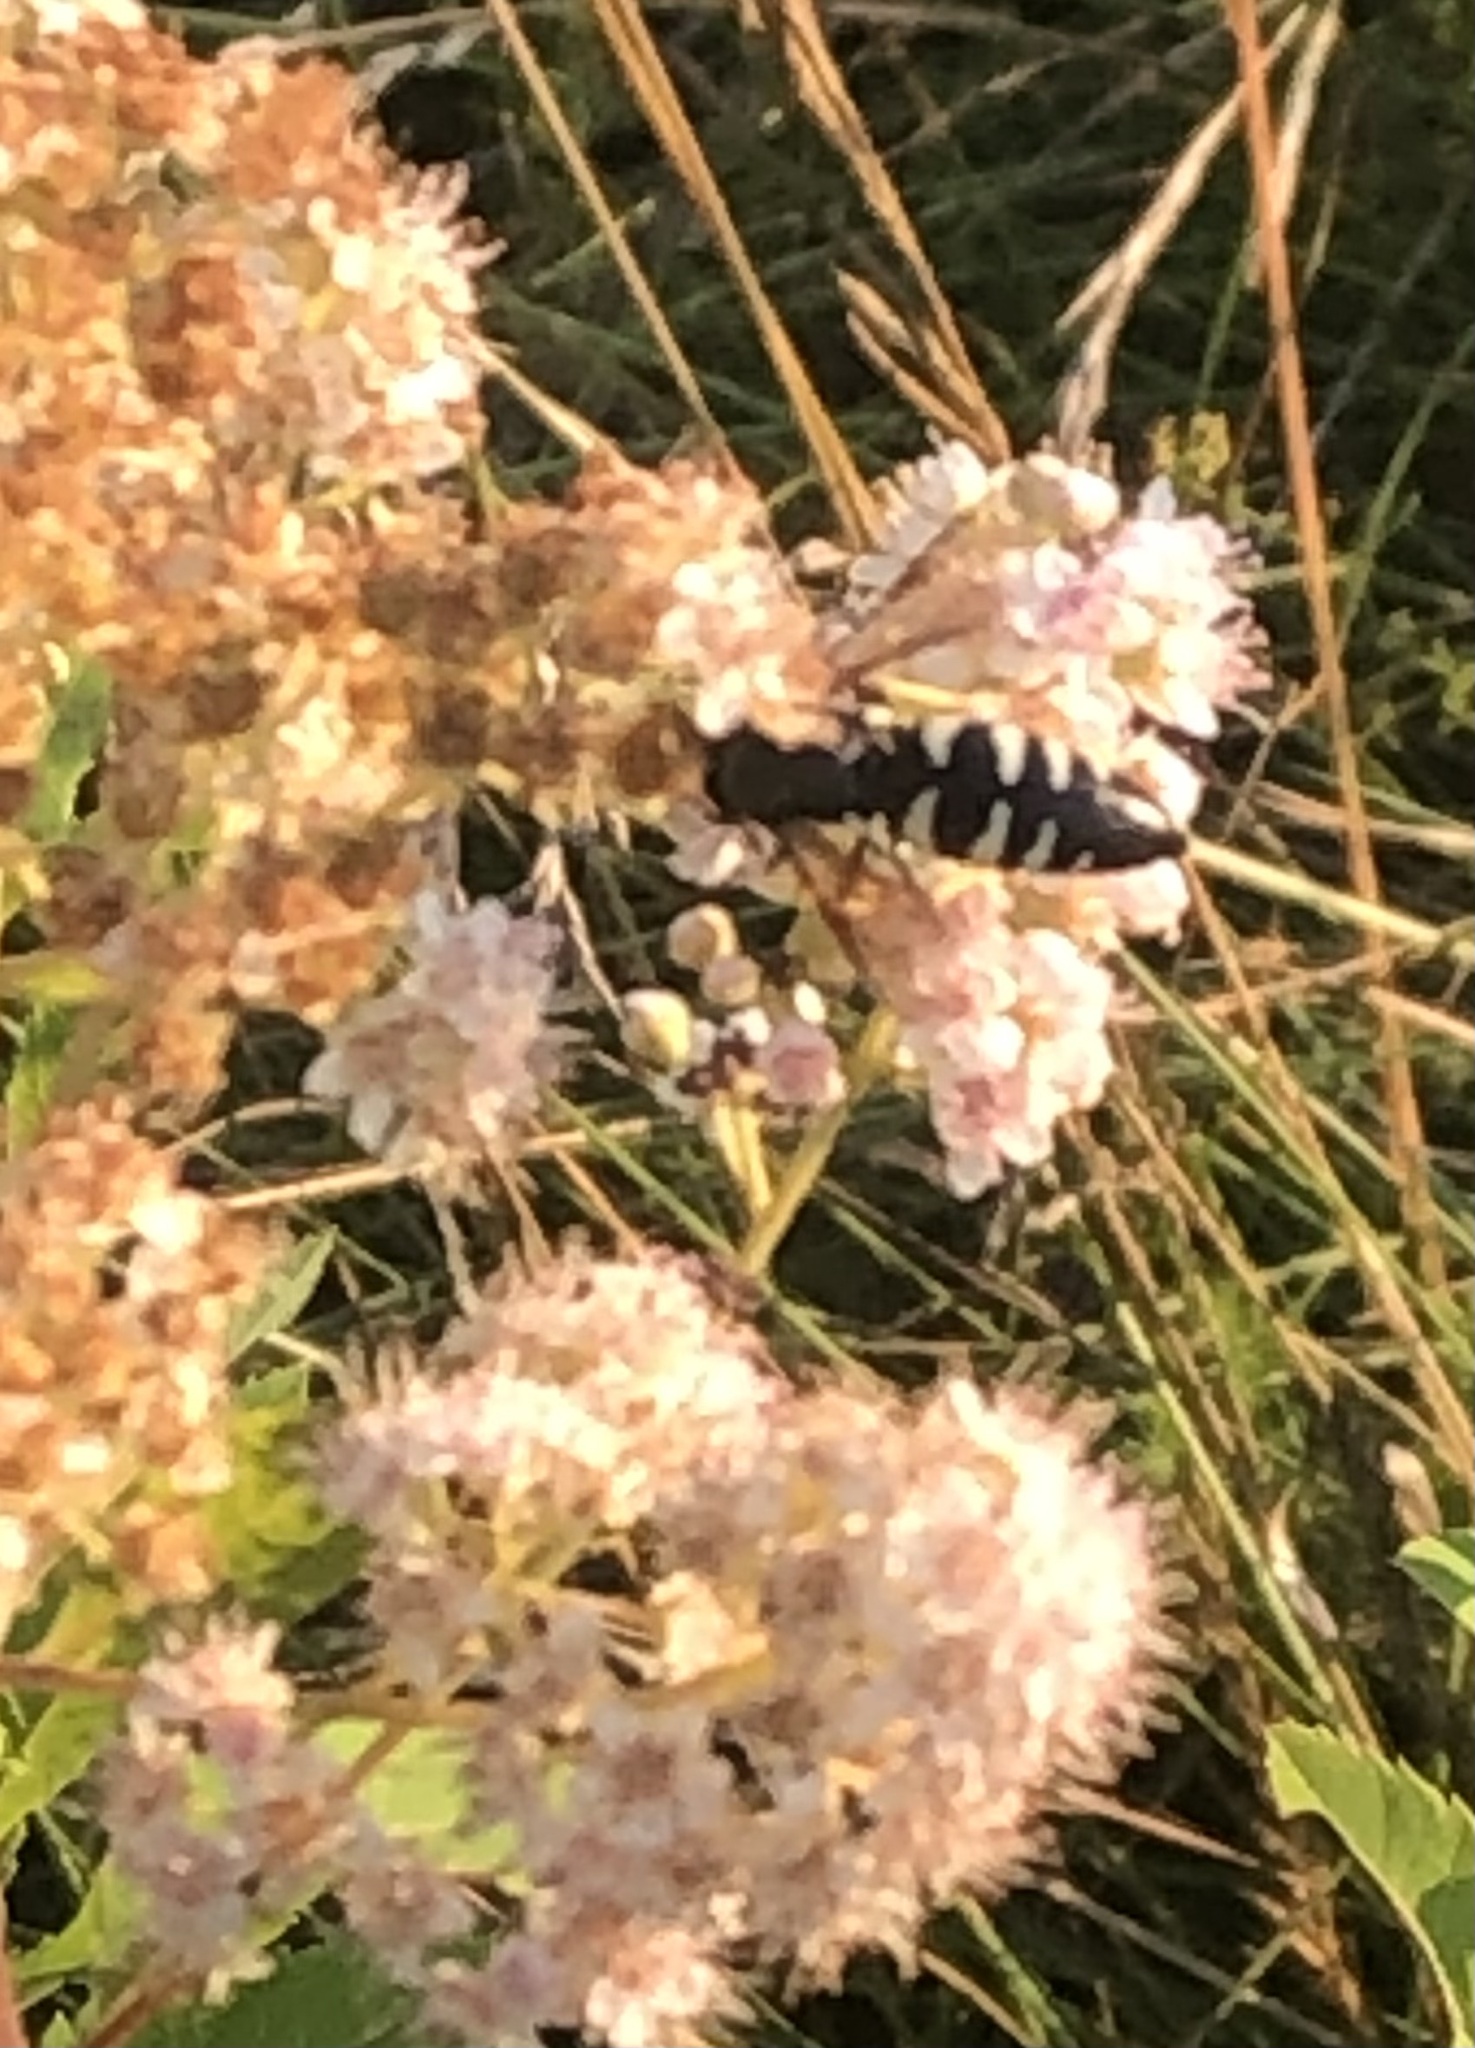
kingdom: Animalia
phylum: Arthropoda
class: Insecta
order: Hymenoptera
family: Crabronidae
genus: Bicyrtes
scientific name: Bicyrtes quadrifasciatus
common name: Four-banded stink bug hunter wasp
